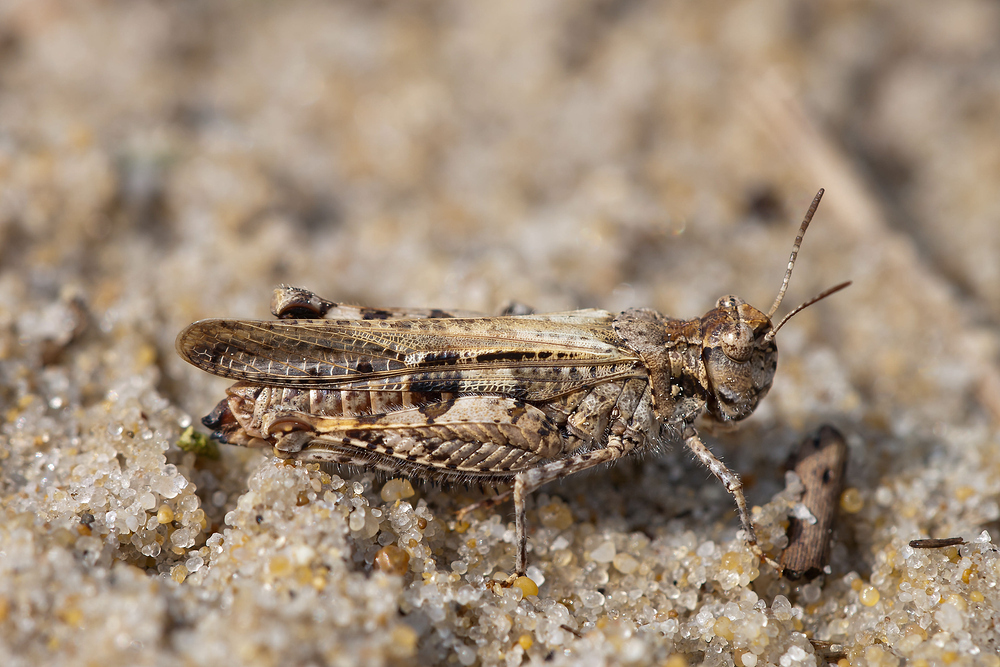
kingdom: Animalia
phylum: Arthropoda
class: Insecta
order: Orthoptera
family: Acrididae
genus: Acrotylus
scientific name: Acrotylus insubricus
